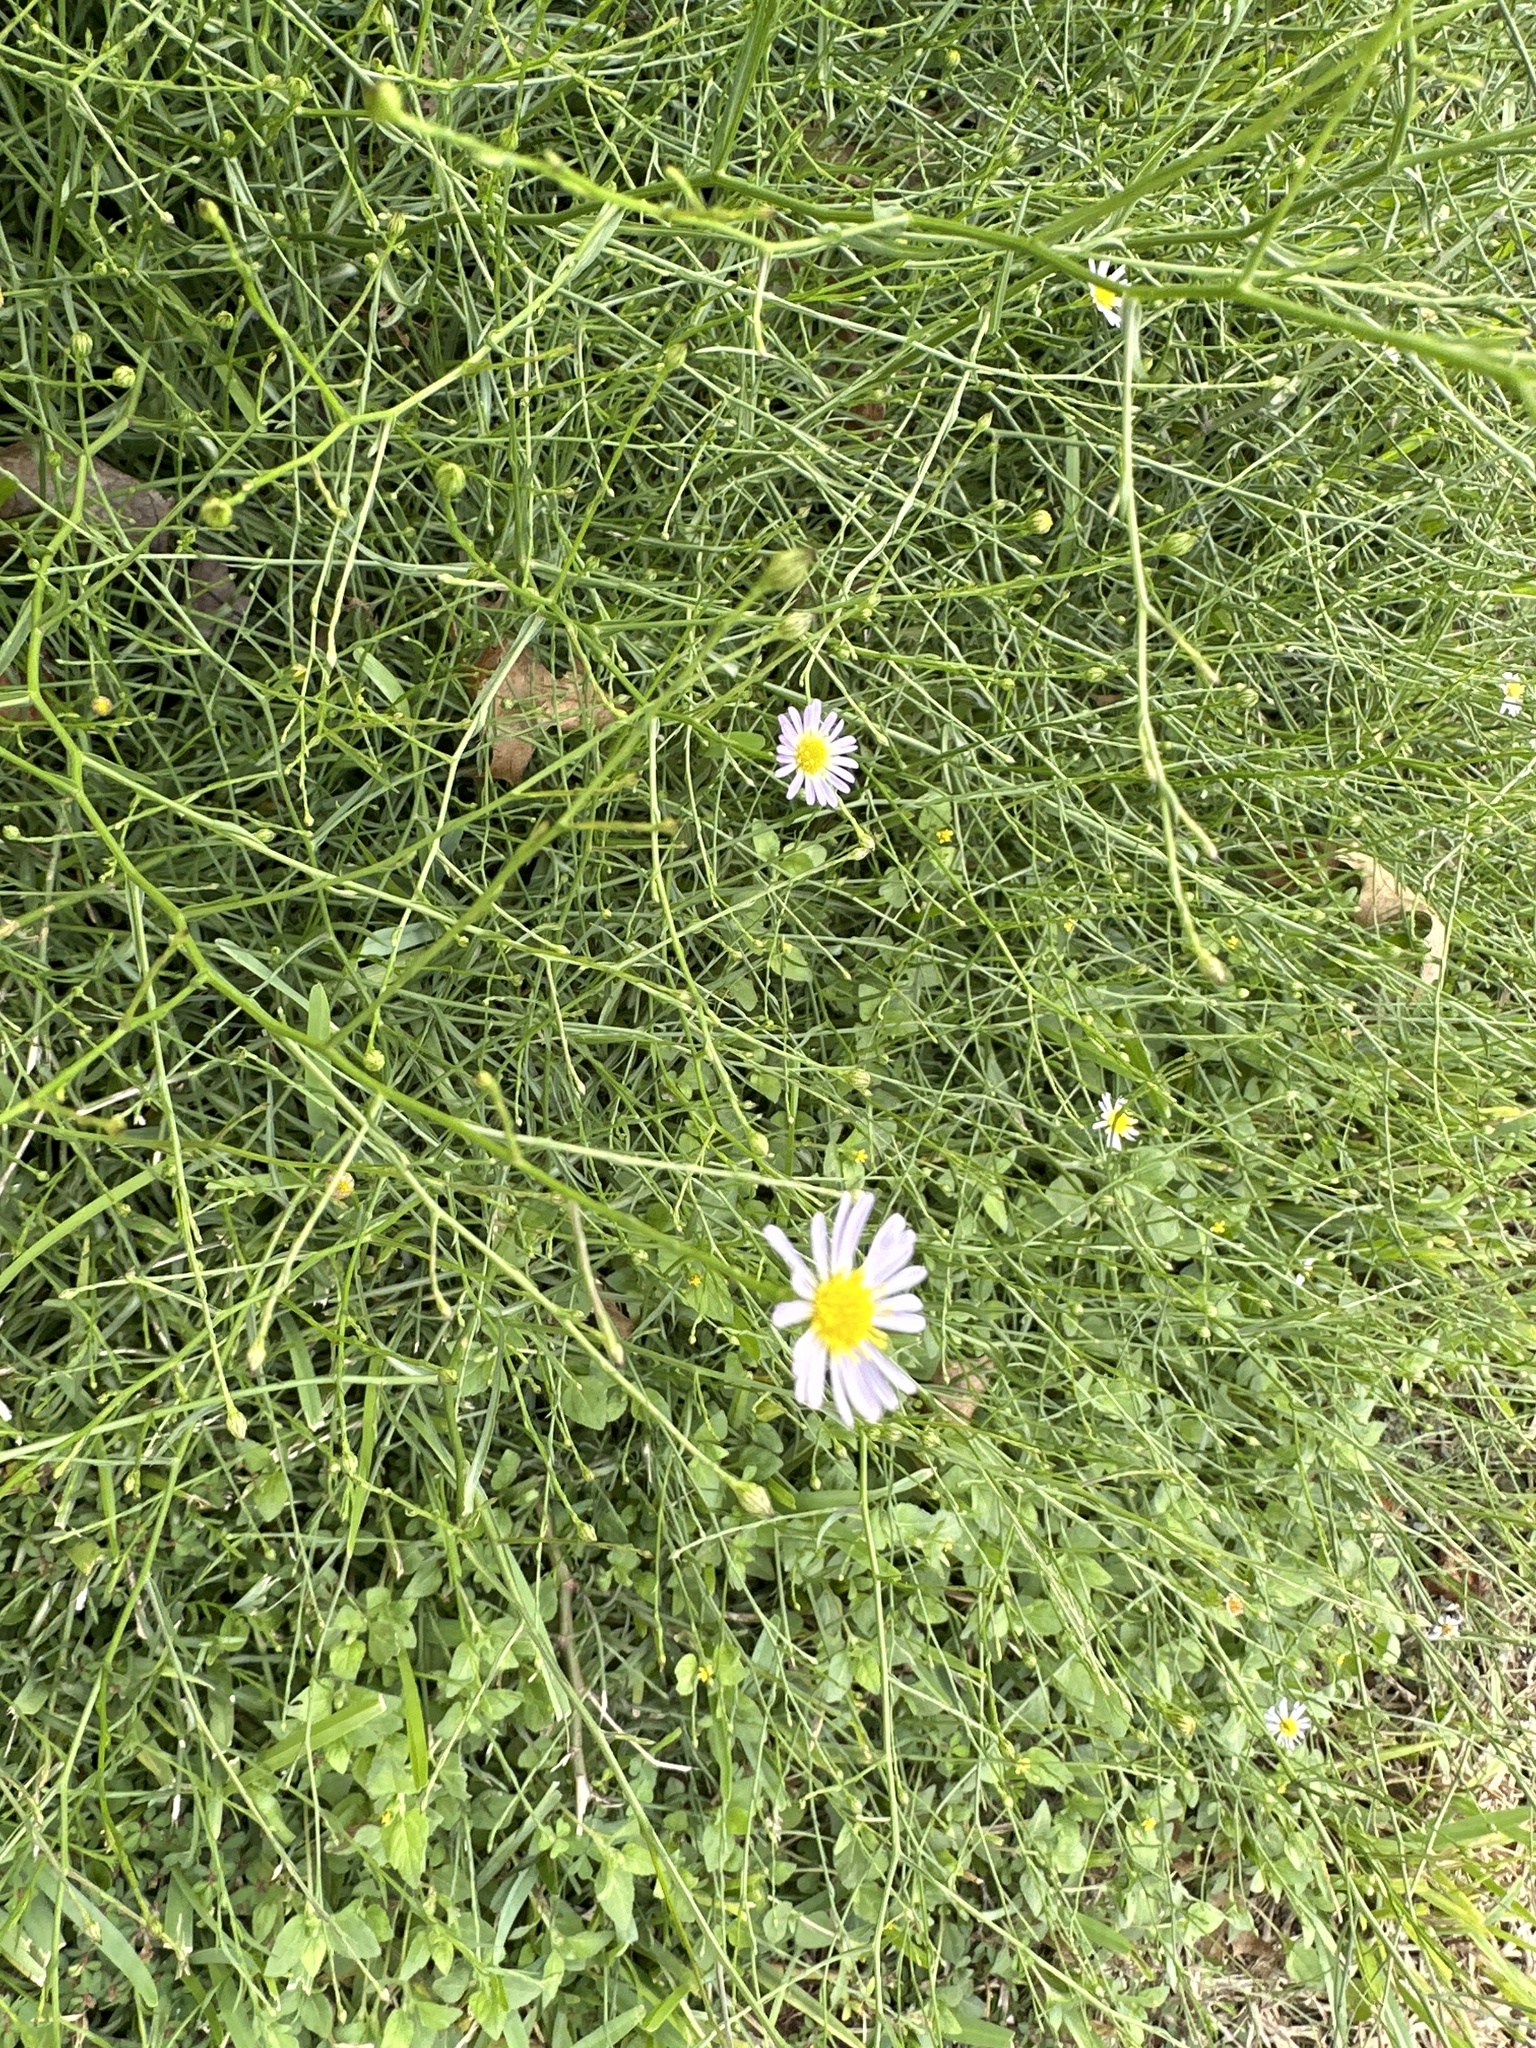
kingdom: Plantae
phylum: Tracheophyta
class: Magnoliopsida
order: Asterales
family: Asteraceae
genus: Symphyotrichum
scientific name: Symphyotrichum divaricatum
